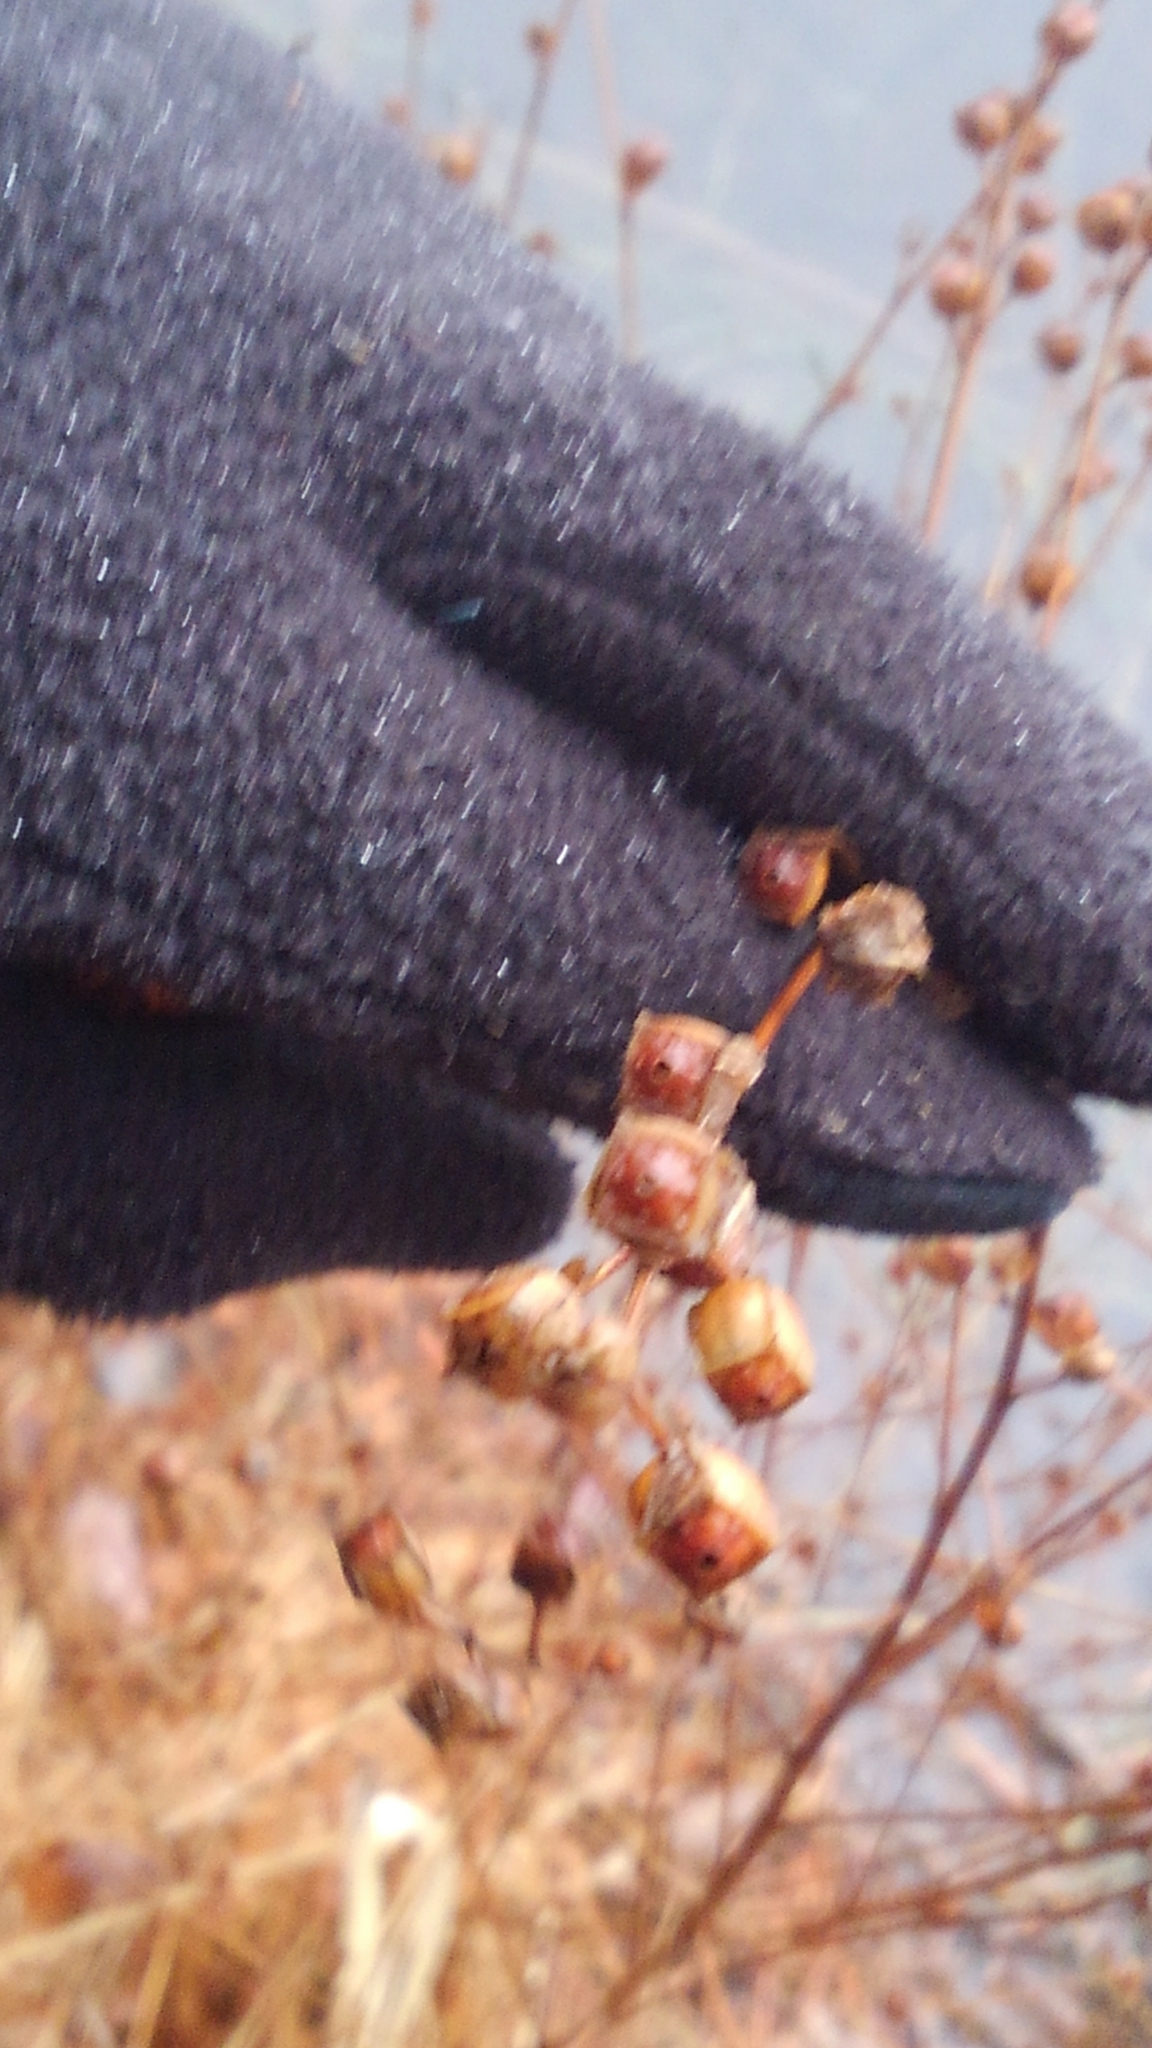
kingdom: Plantae
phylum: Tracheophyta
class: Magnoliopsida
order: Myrtales
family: Onagraceae
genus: Ludwigia
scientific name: Ludwigia alternifolia
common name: Rattlebox
